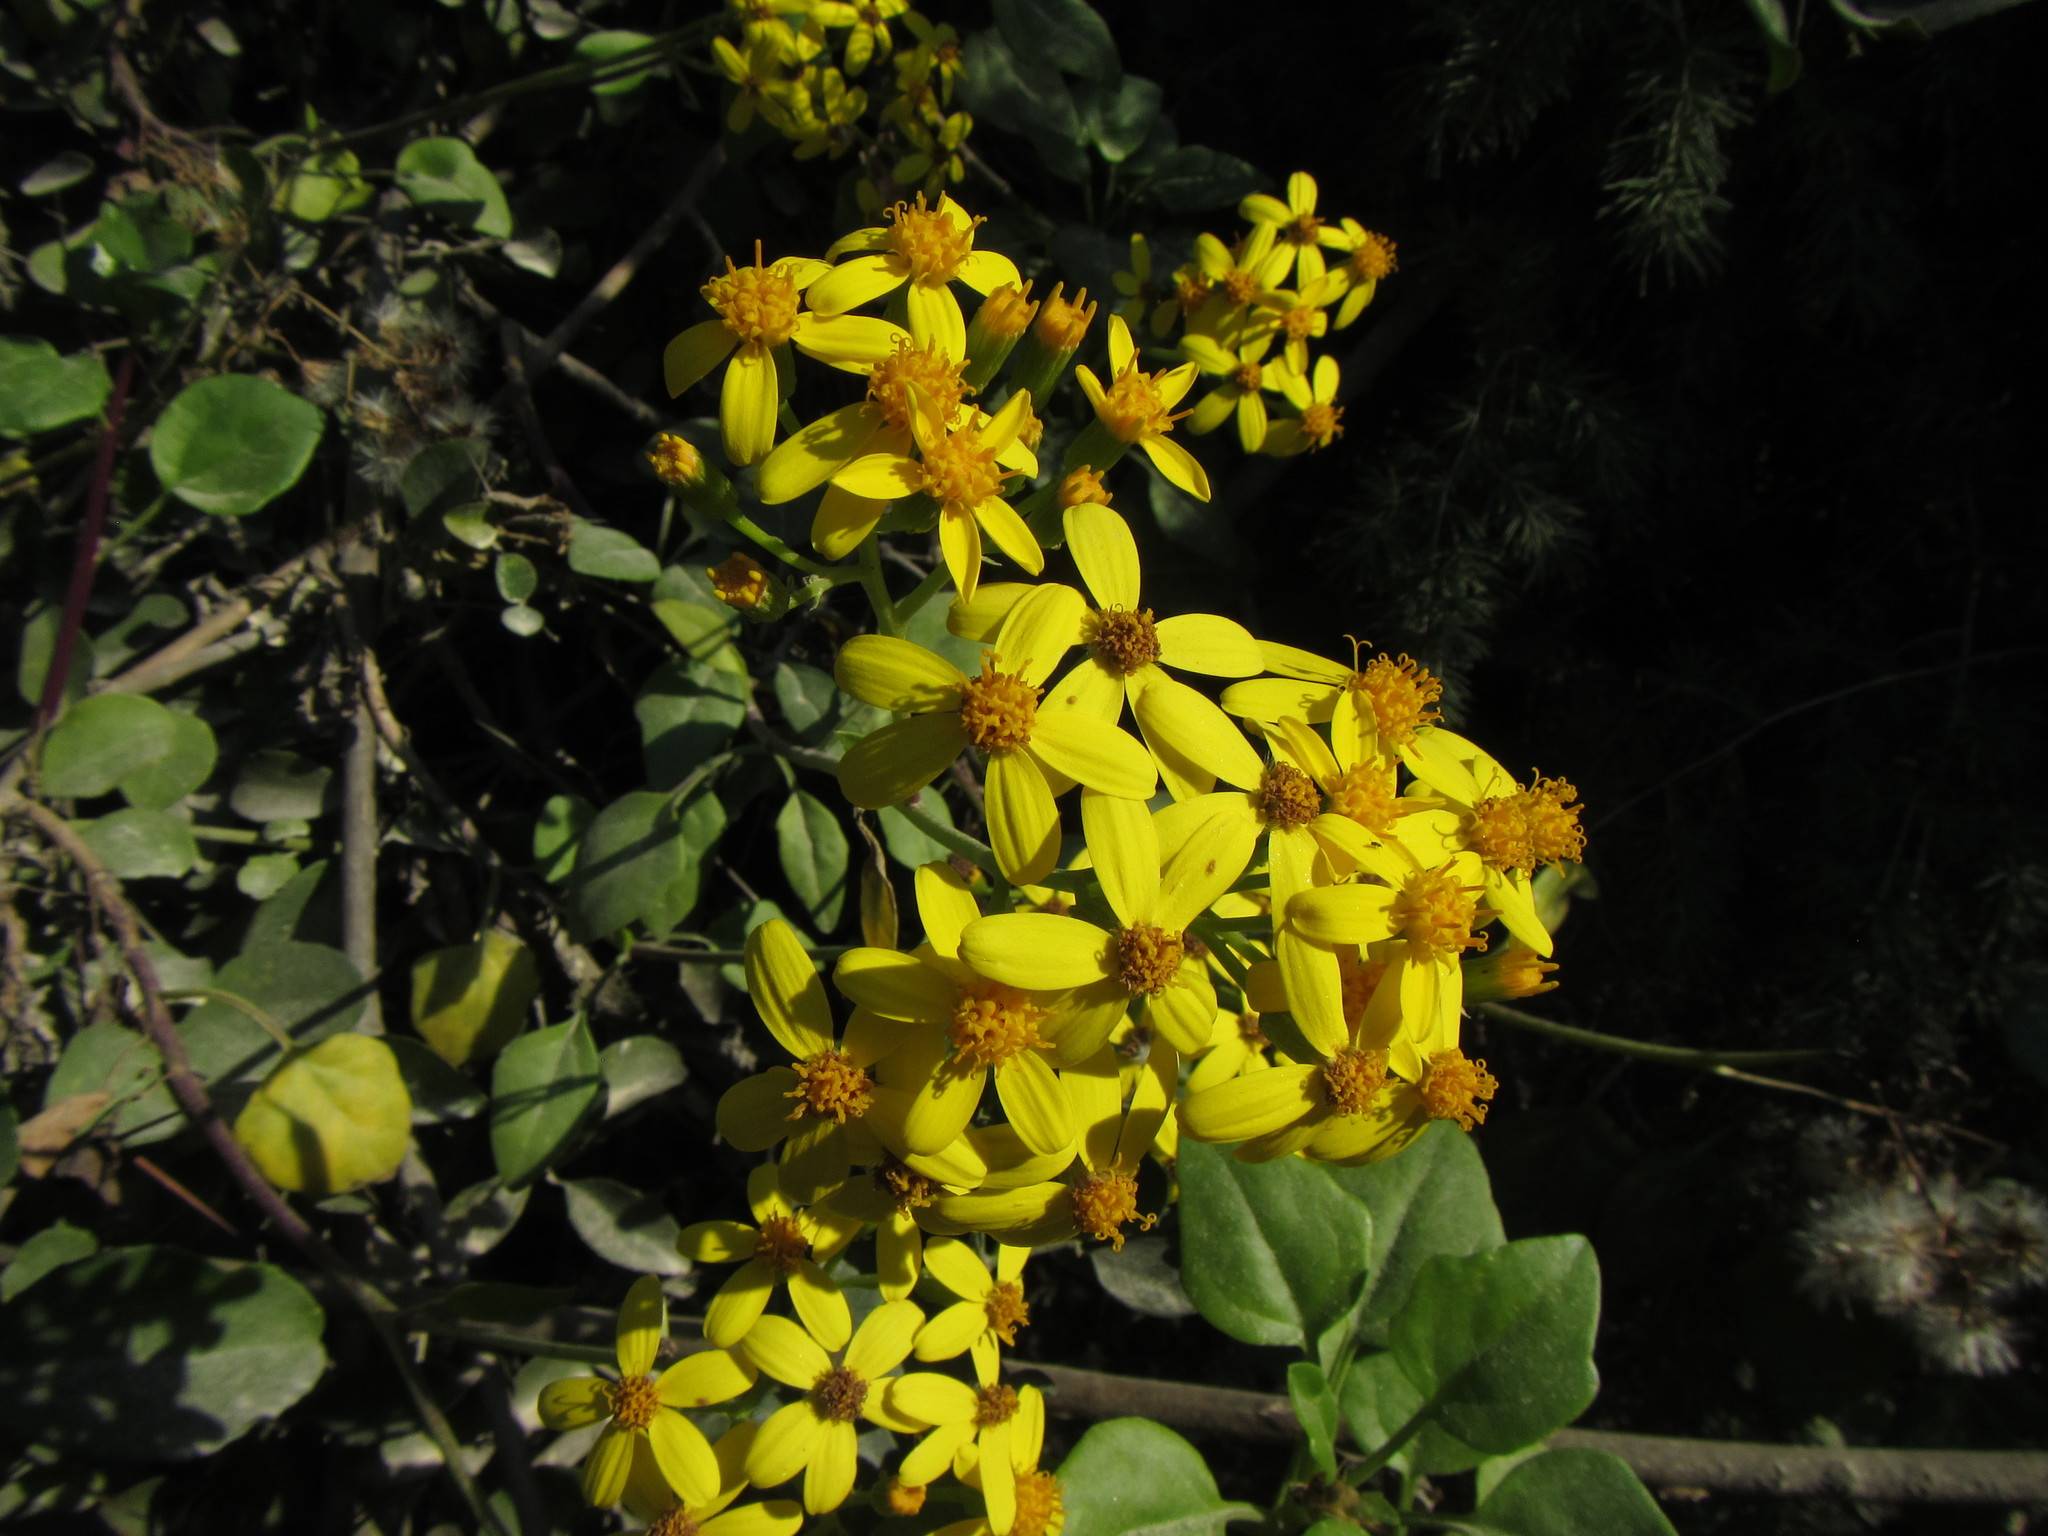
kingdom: Plantae
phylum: Tracheophyta
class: Magnoliopsida
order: Asterales
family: Asteraceae
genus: Senecio
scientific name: Senecio angulatus
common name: Climbing groundsel
